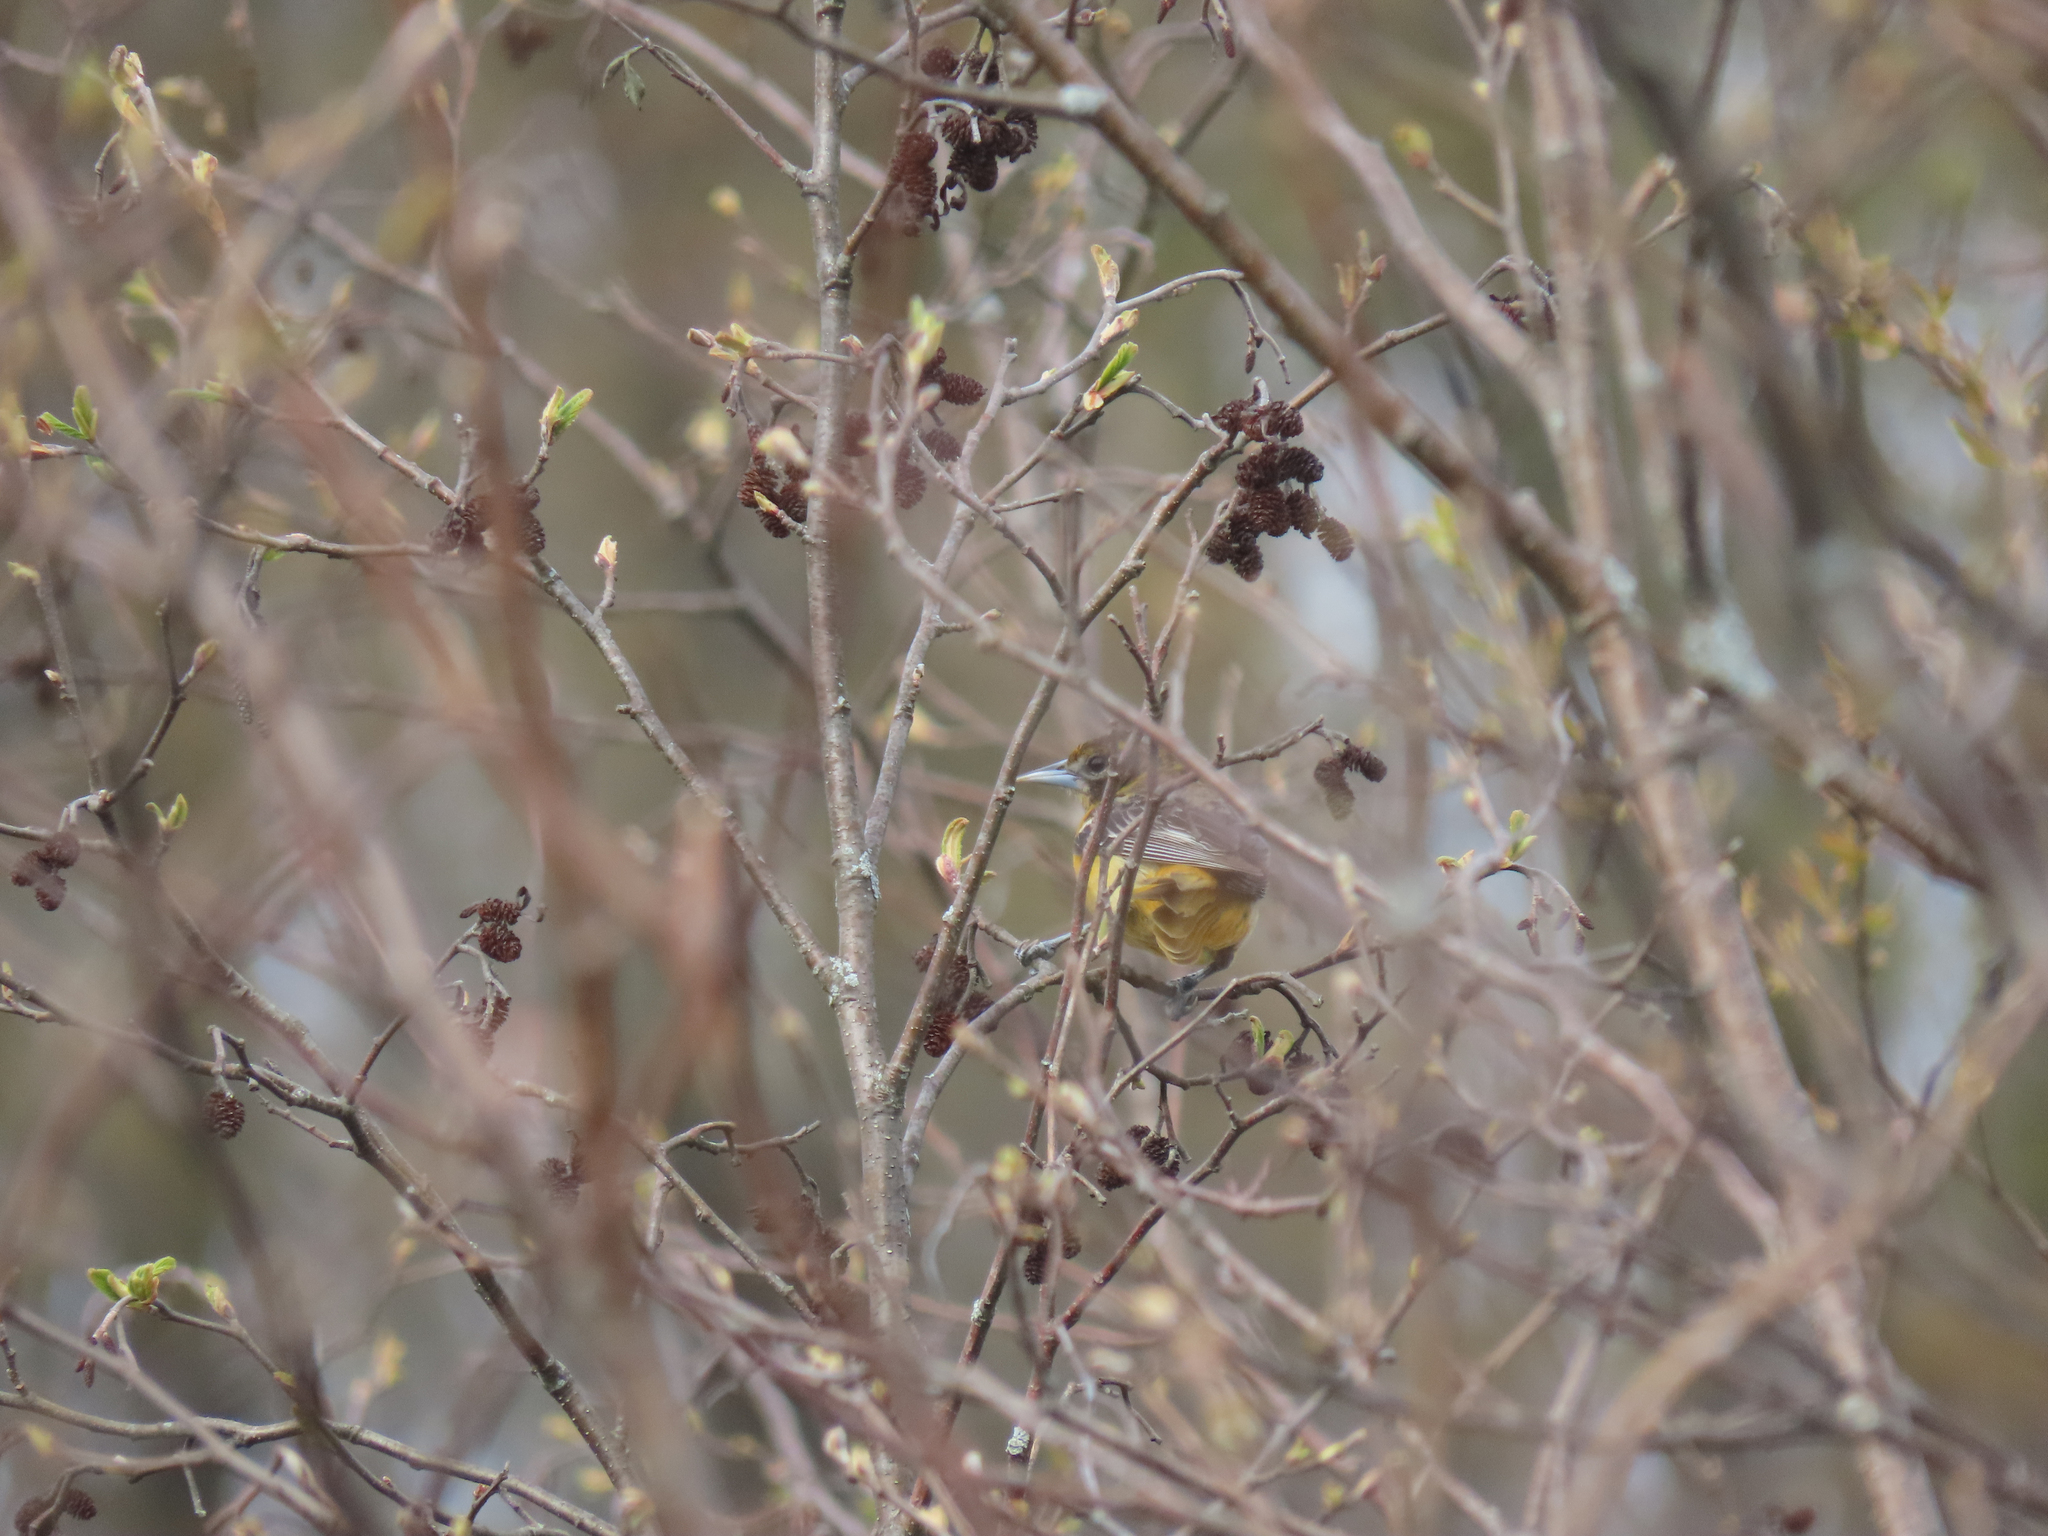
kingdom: Animalia
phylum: Chordata
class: Aves
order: Passeriformes
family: Icteridae
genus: Icterus
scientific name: Icterus galbula
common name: Baltimore oriole
